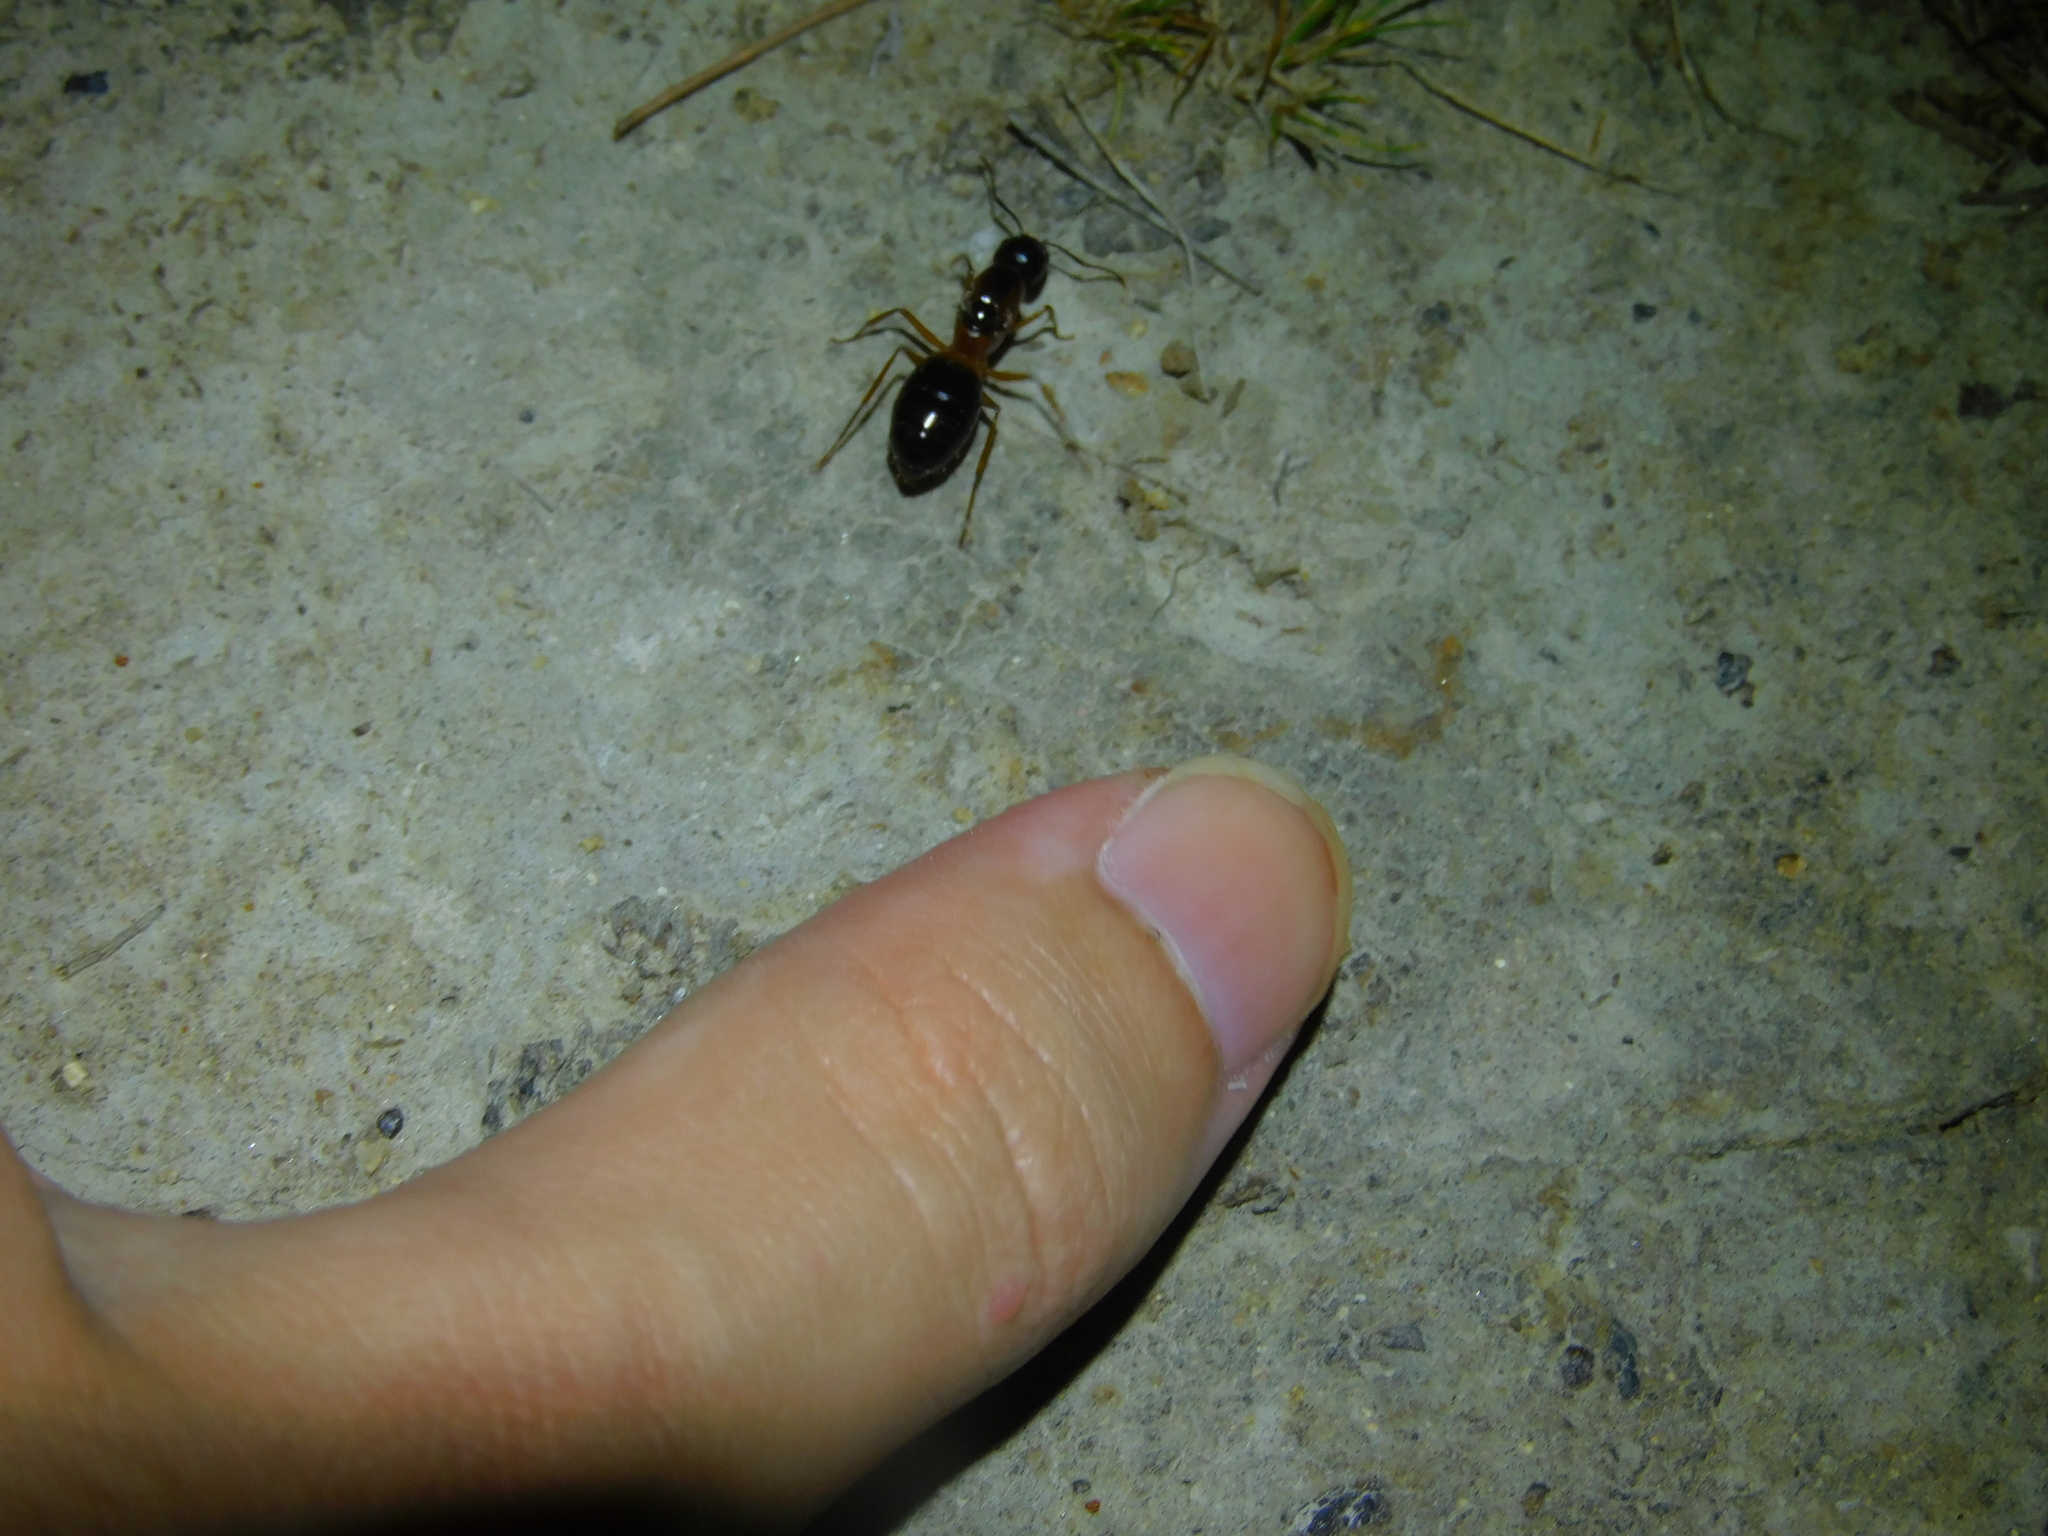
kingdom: Animalia
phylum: Arthropoda
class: Insecta
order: Hymenoptera
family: Formicidae
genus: Camponotus
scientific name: Camponotus consobrinus
